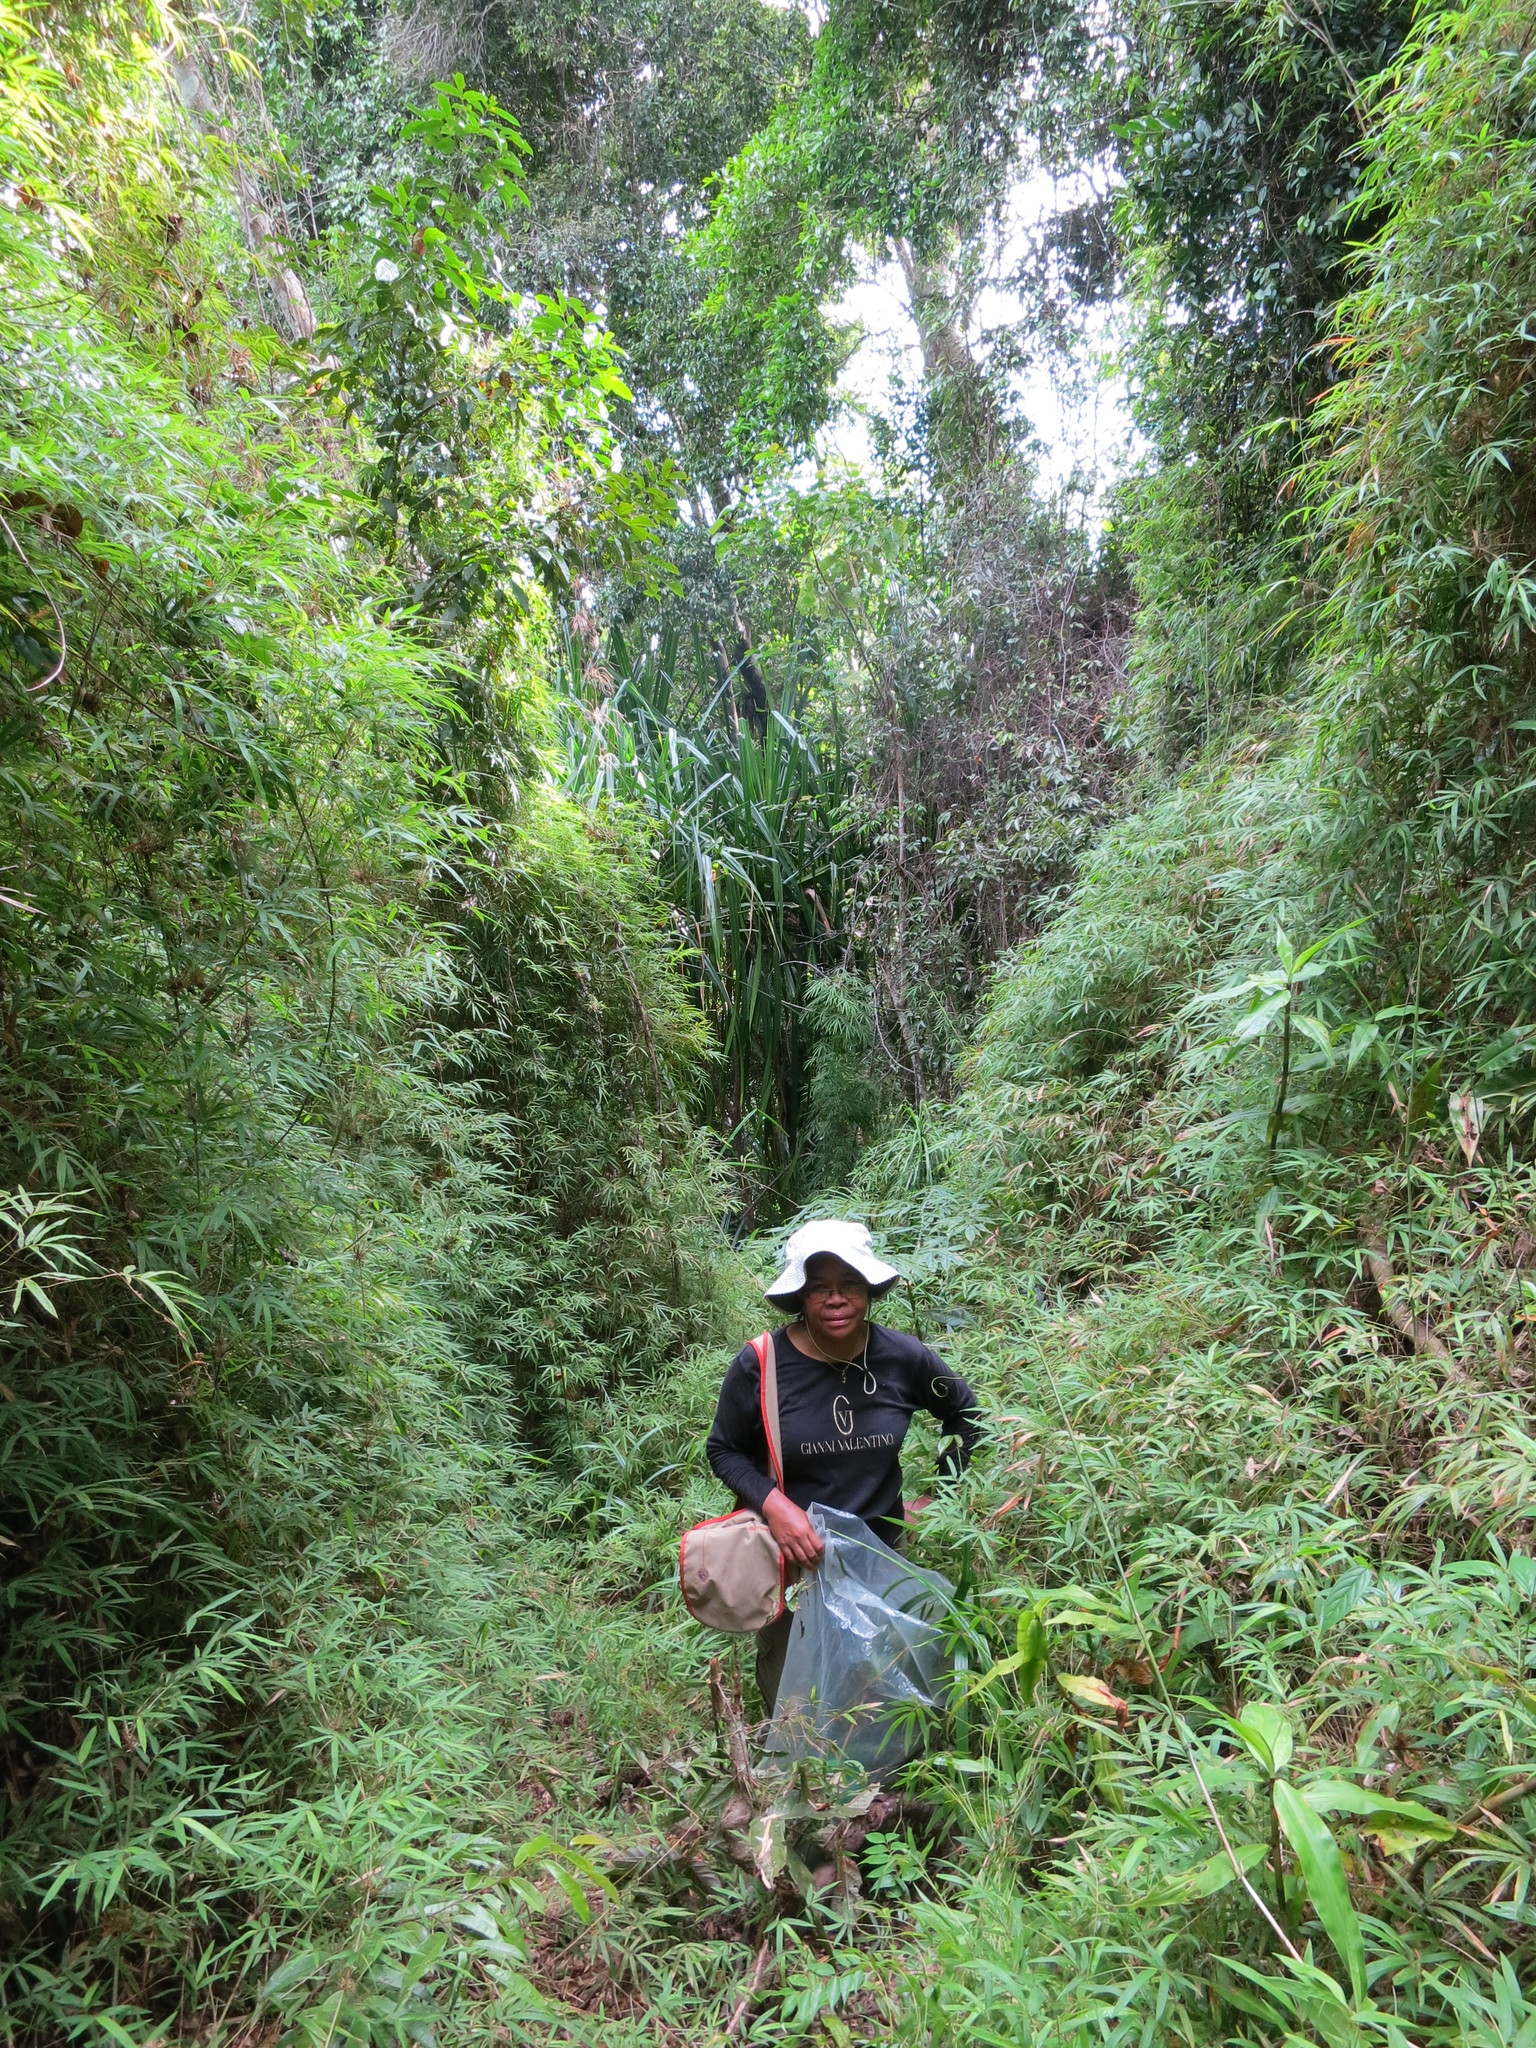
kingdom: Plantae
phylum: Tracheophyta
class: Liliopsida
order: Poales
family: Poaceae
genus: Sirochloa
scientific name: Sirochloa parvifolia
